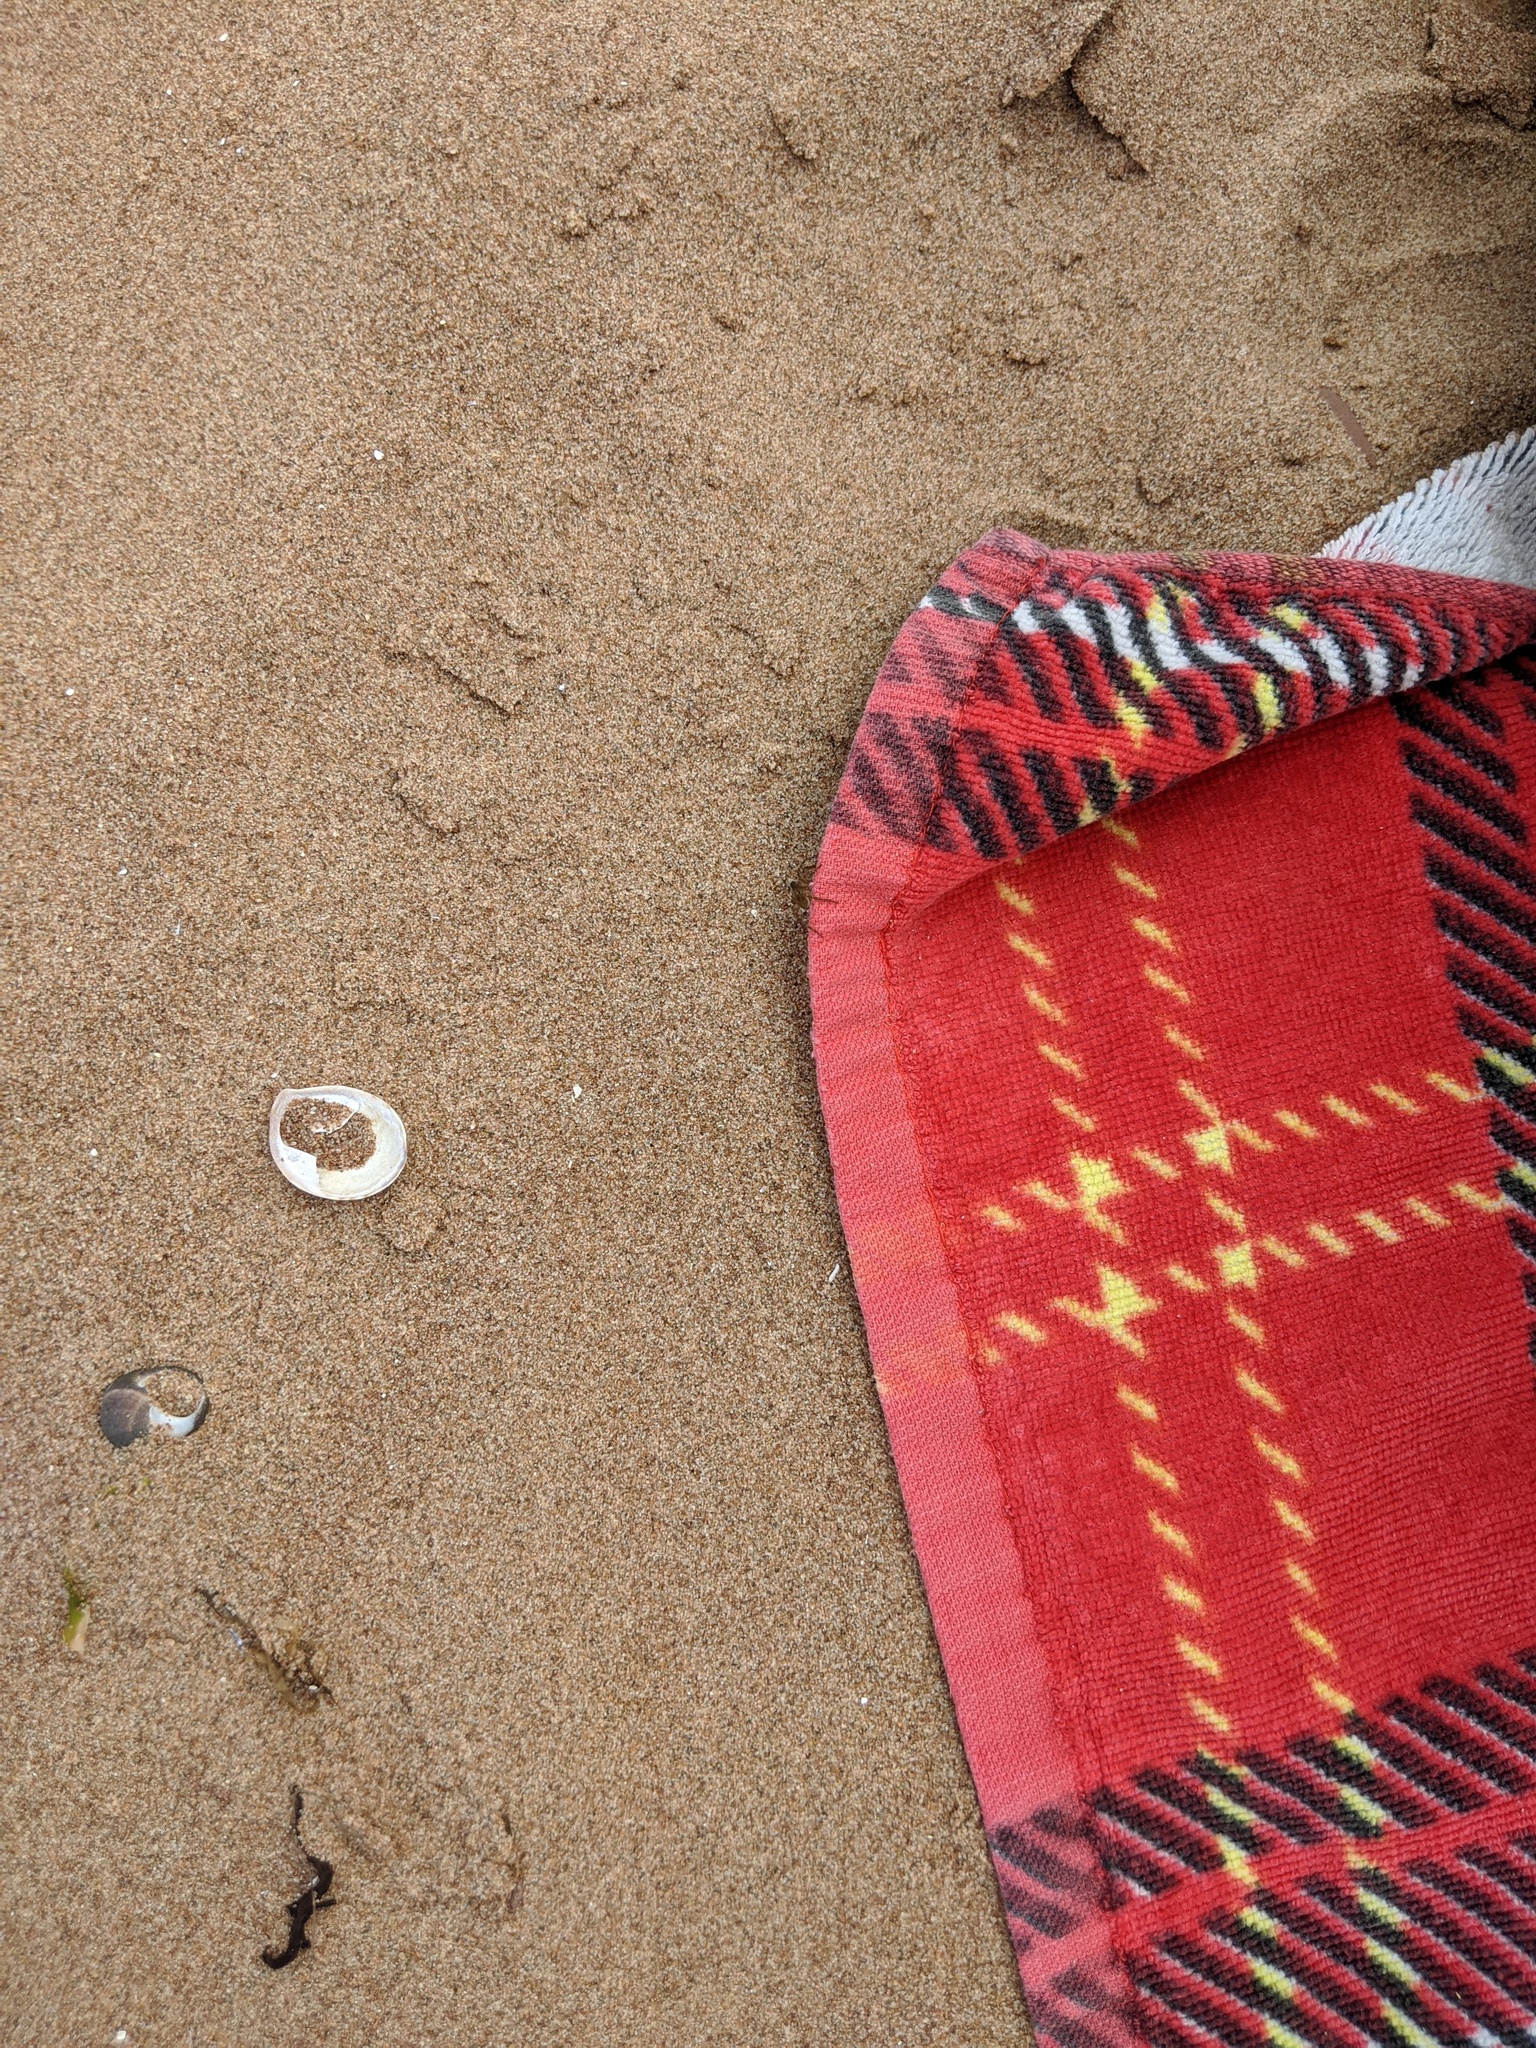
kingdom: Animalia
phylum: Mollusca
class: Gastropoda
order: Littorinimorpha
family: Calyptraeidae
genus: Crepidula
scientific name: Crepidula fornicata
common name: Slipper limpet
